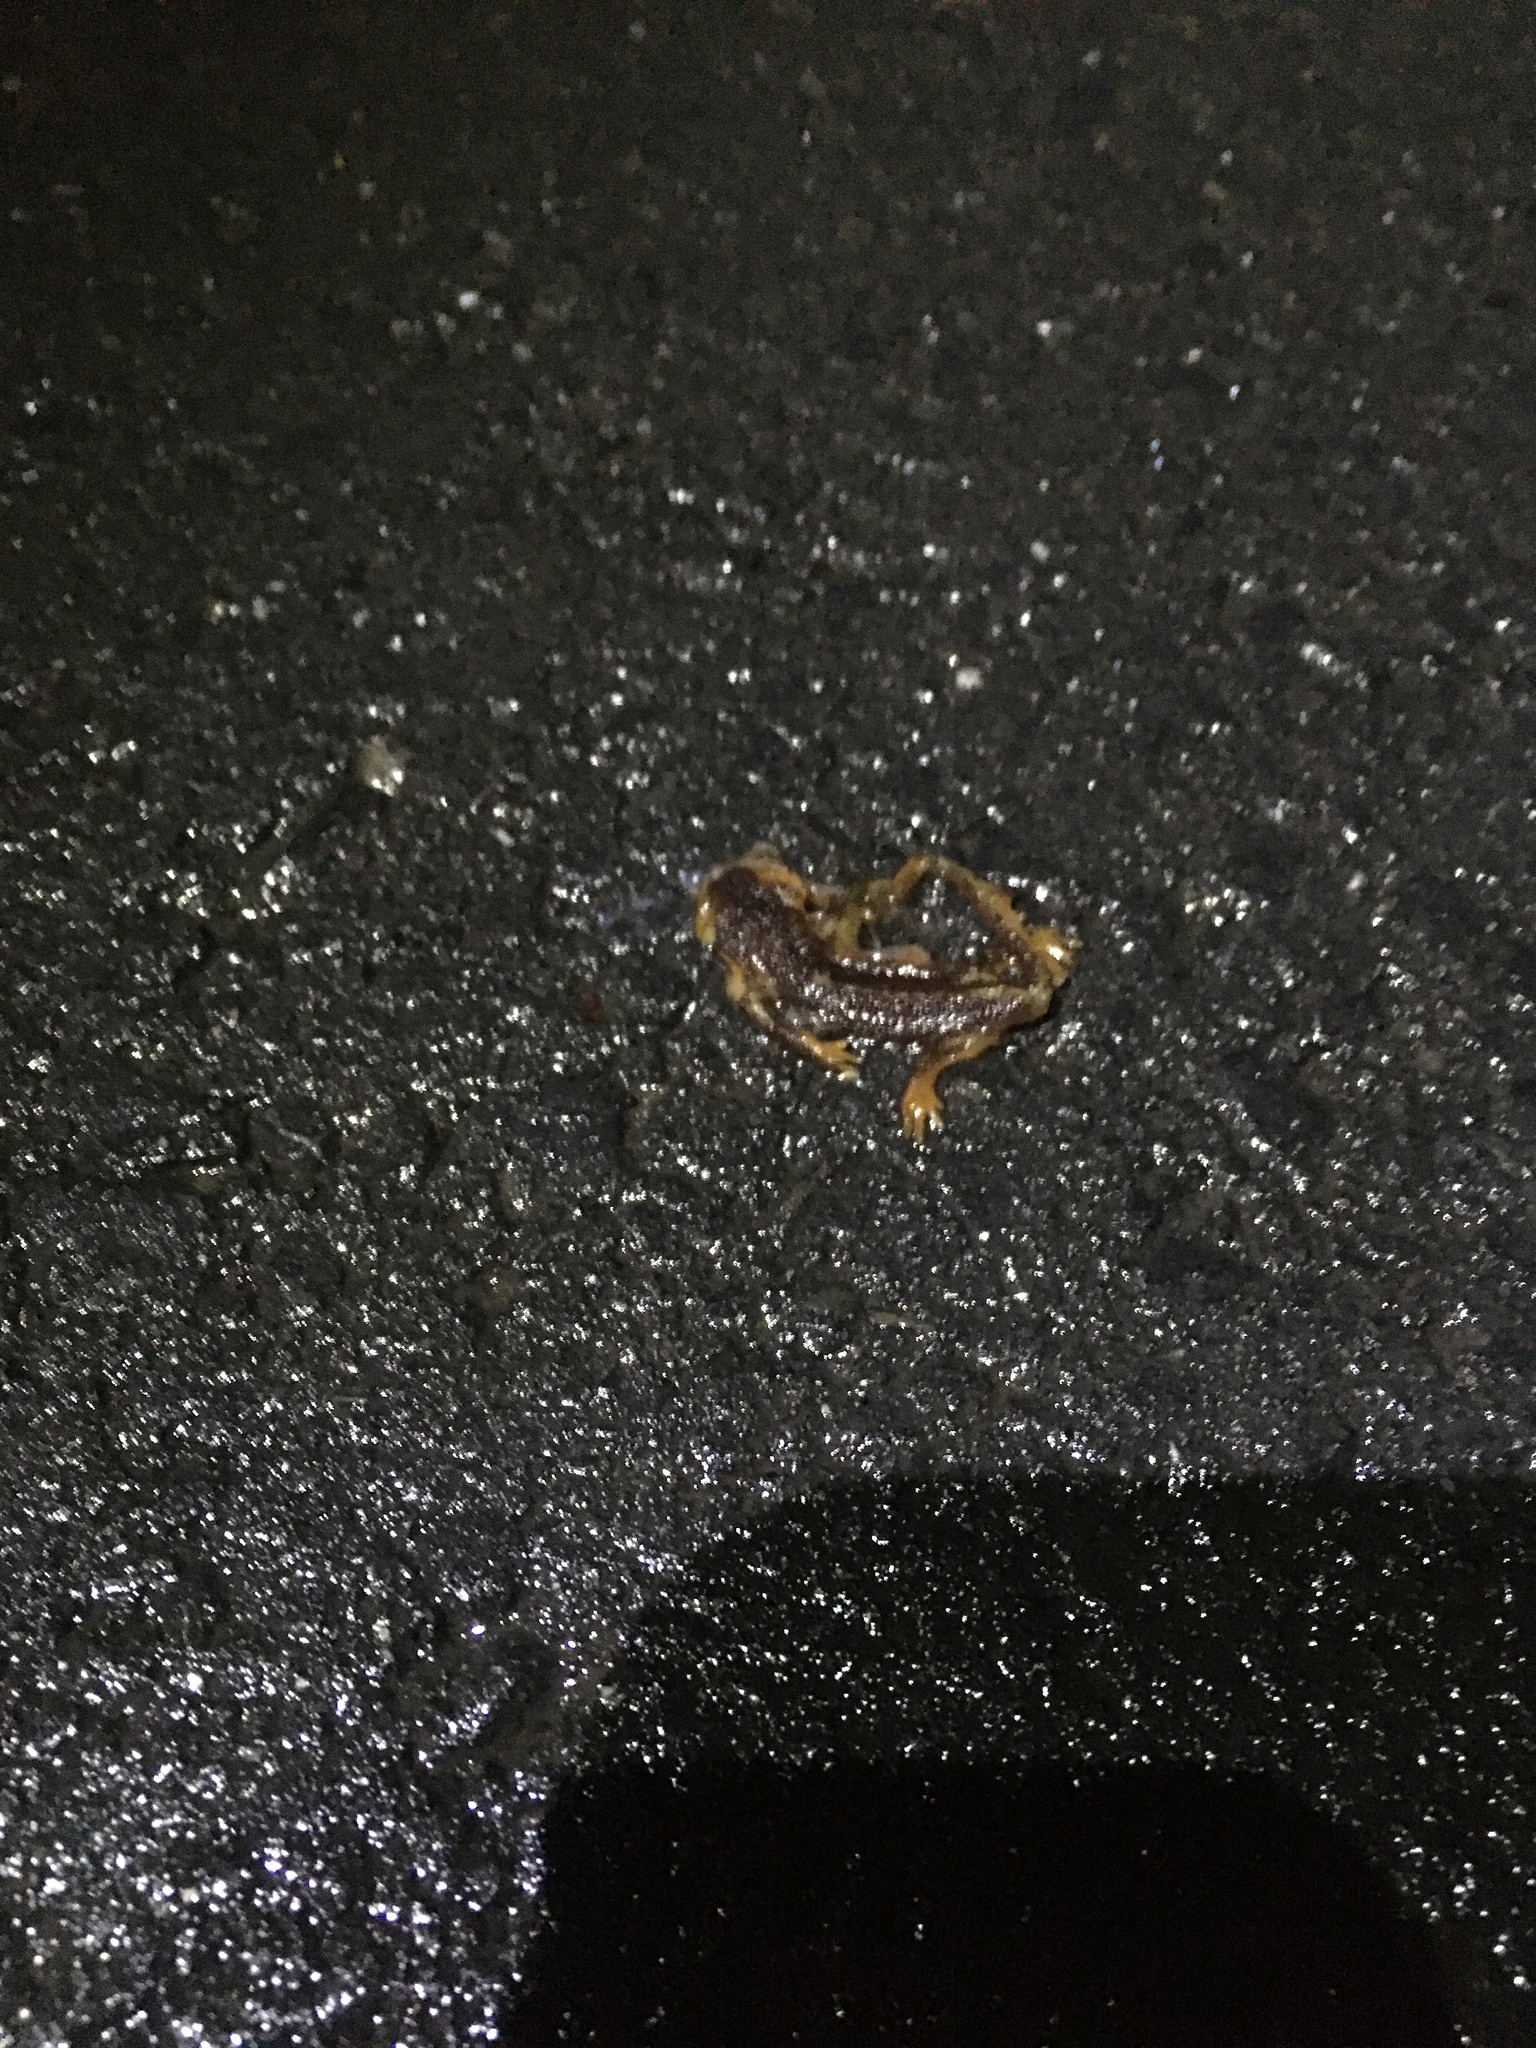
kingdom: Animalia
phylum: Chordata
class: Amphibia
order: Caudata
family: Salamandridae
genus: Taricha
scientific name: Taricha
